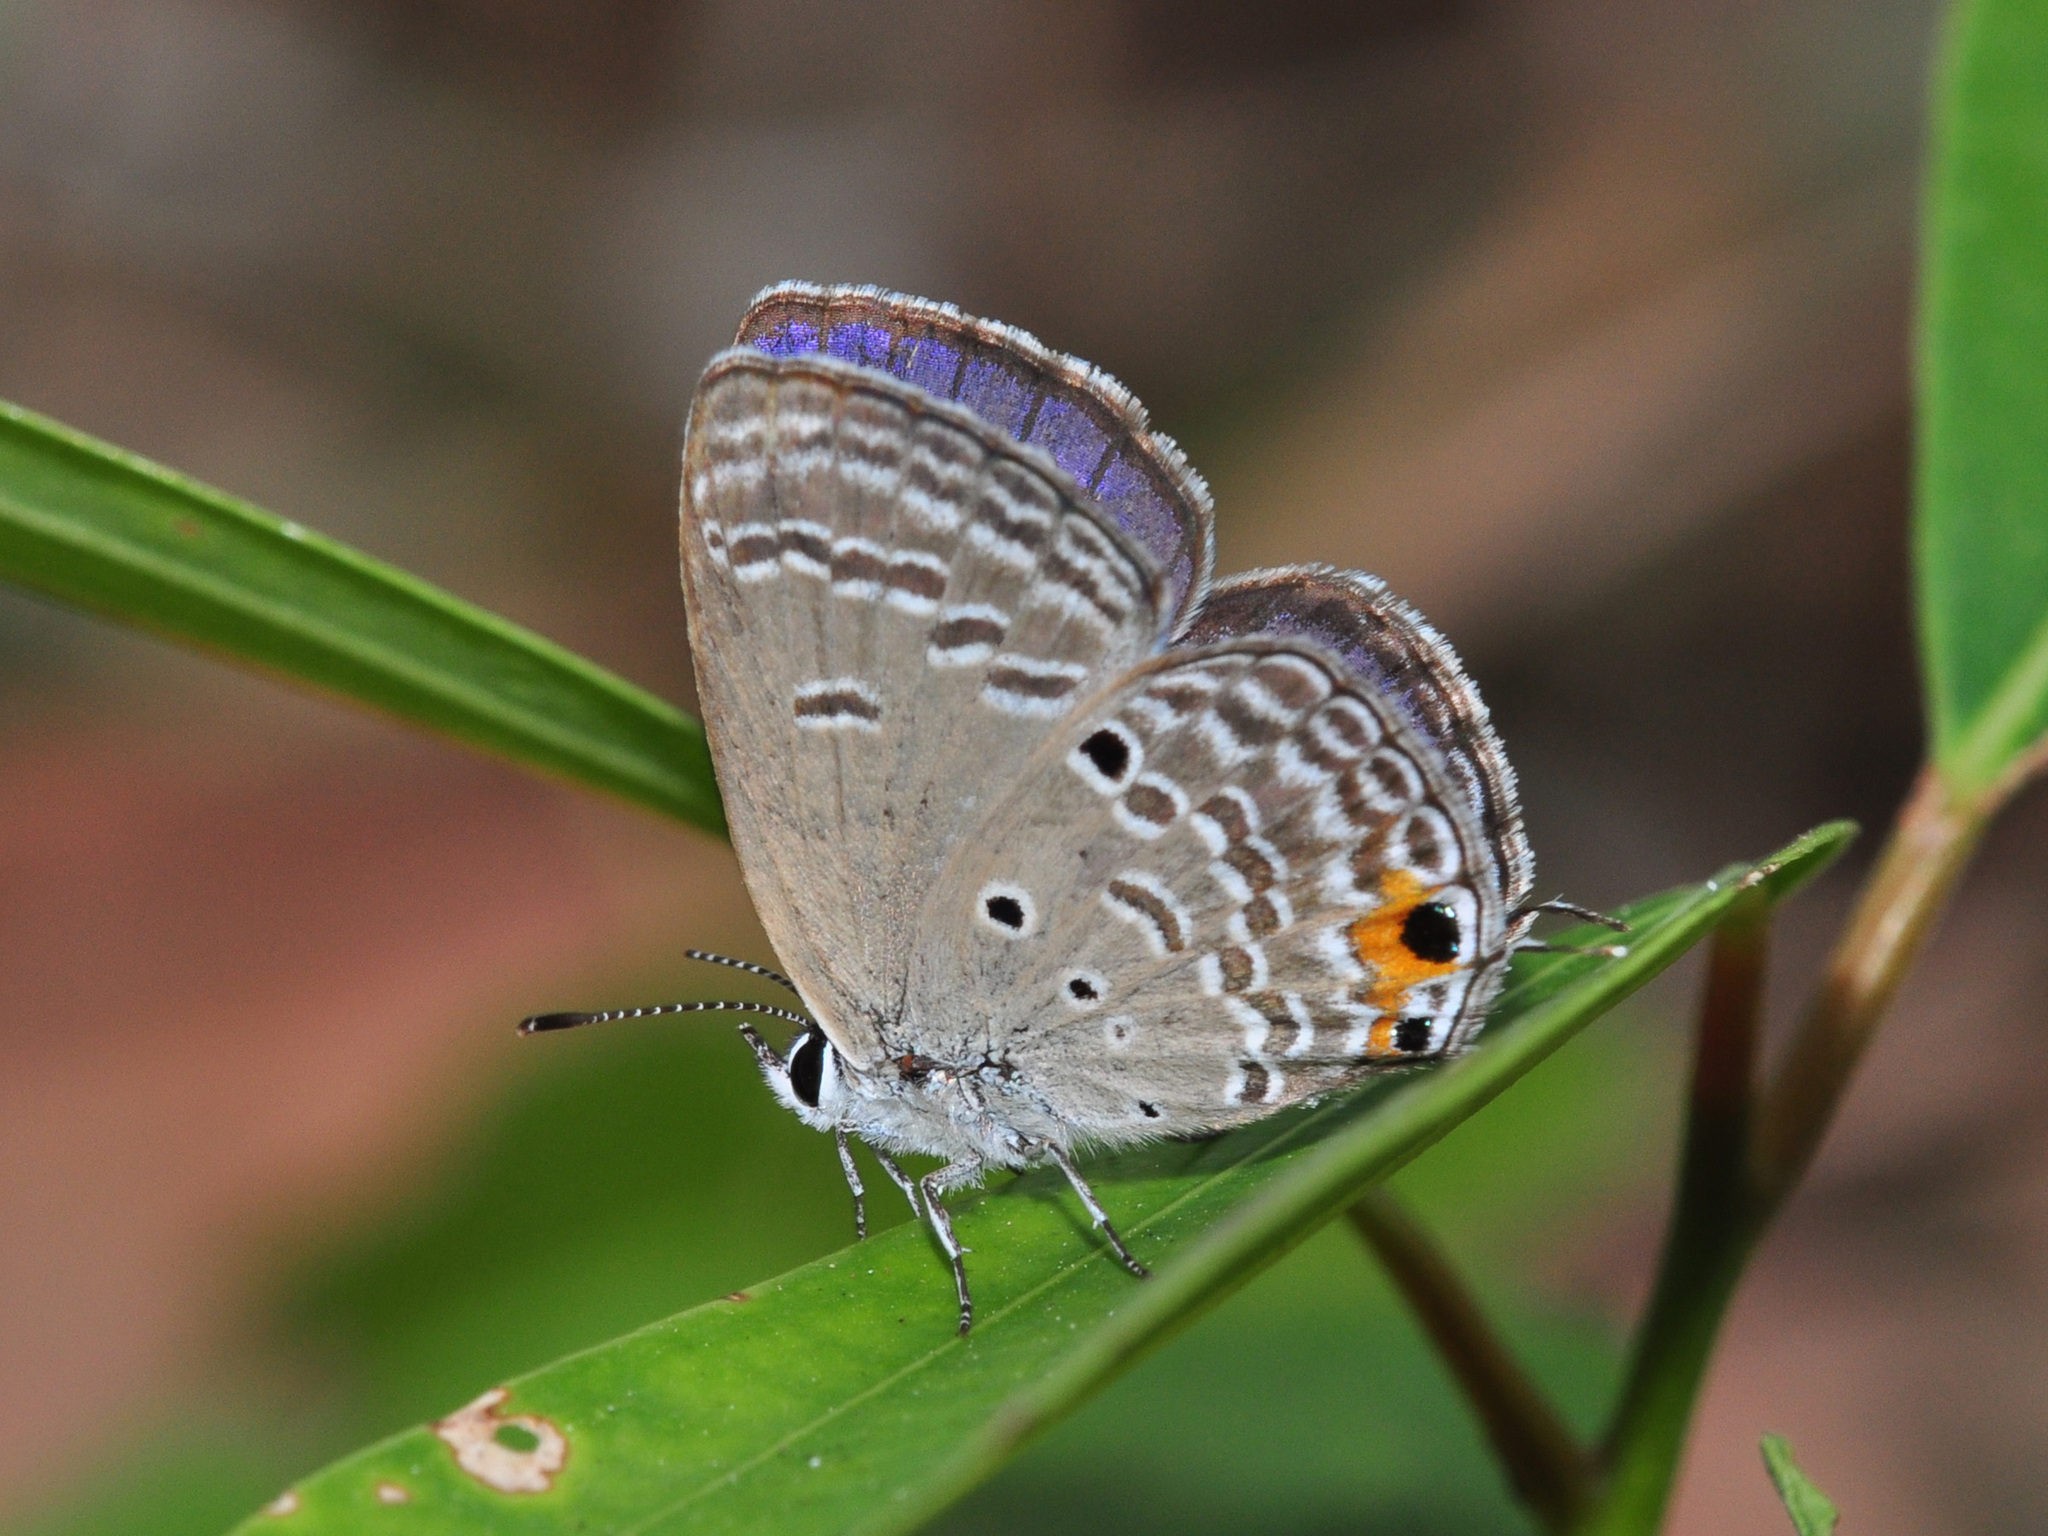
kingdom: Animalia
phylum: Arthropoda
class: Insecta
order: Lepidoptera
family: Lycaenidae
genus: Luthrodes
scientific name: Luthrodes pandava
